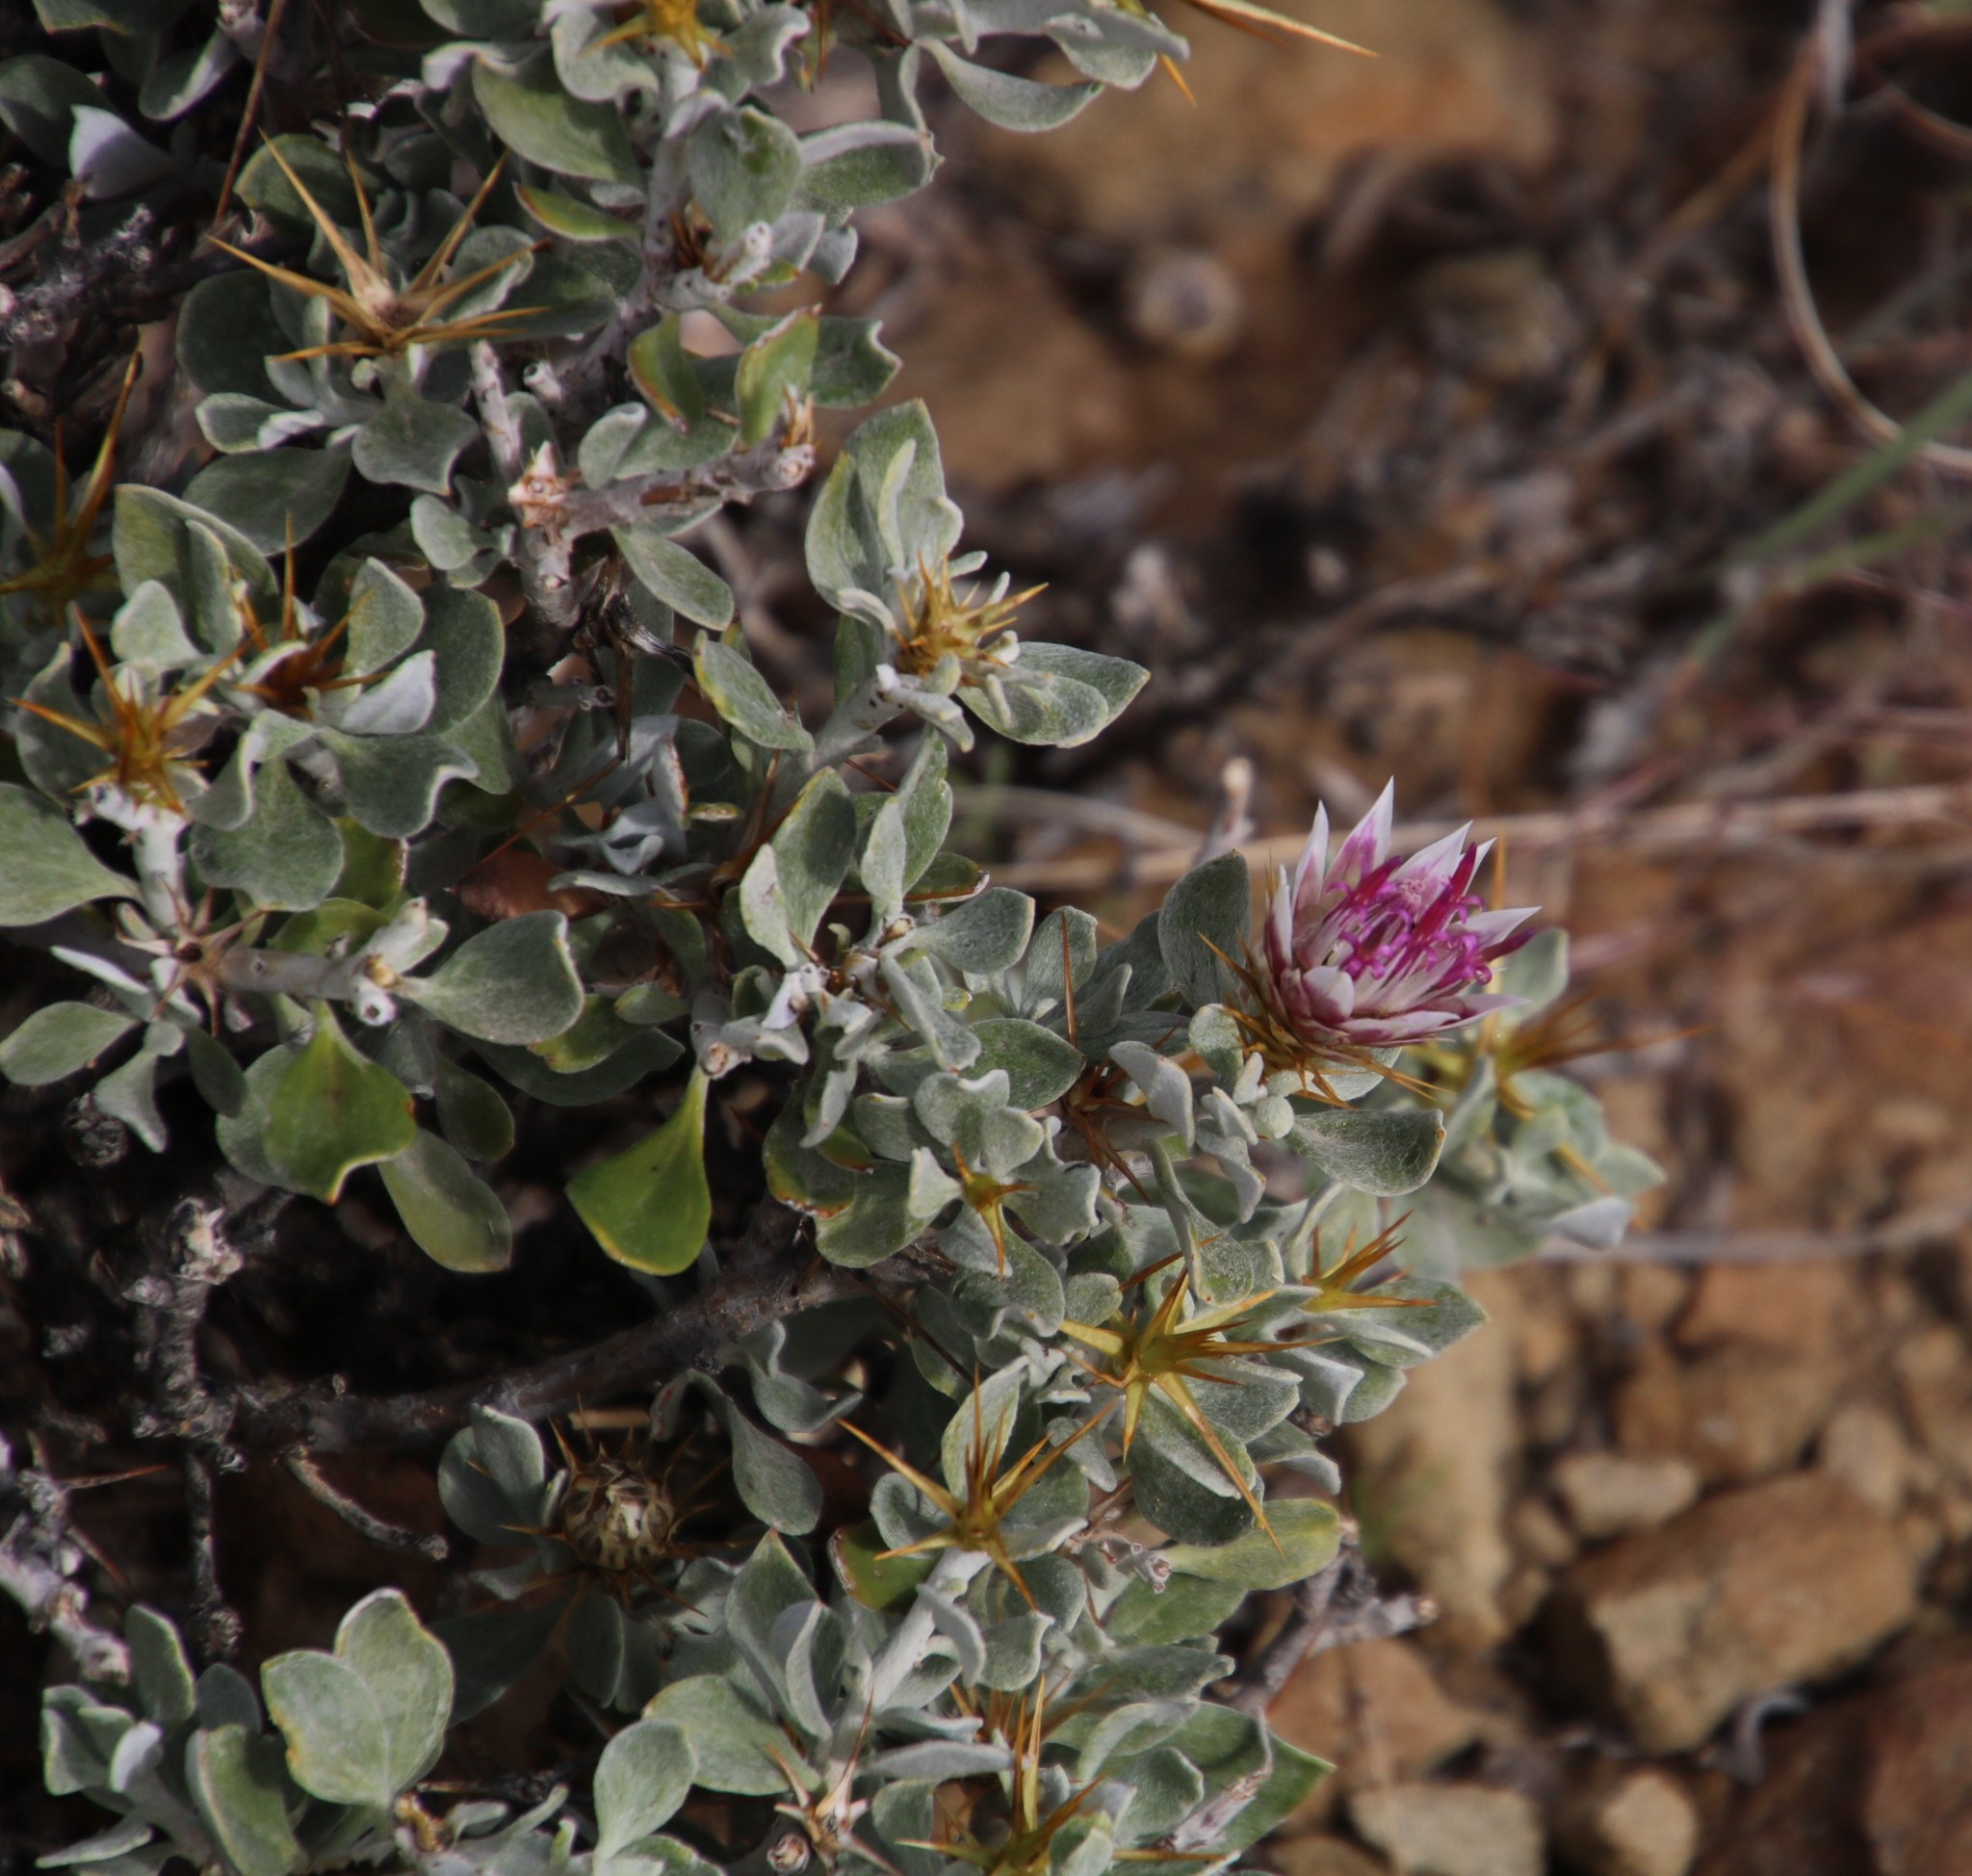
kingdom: Plantae
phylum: Tracheophyta
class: Magnoliopsida
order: Asterales
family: Asteraceae
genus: Macledium
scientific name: Macledium spinosum
